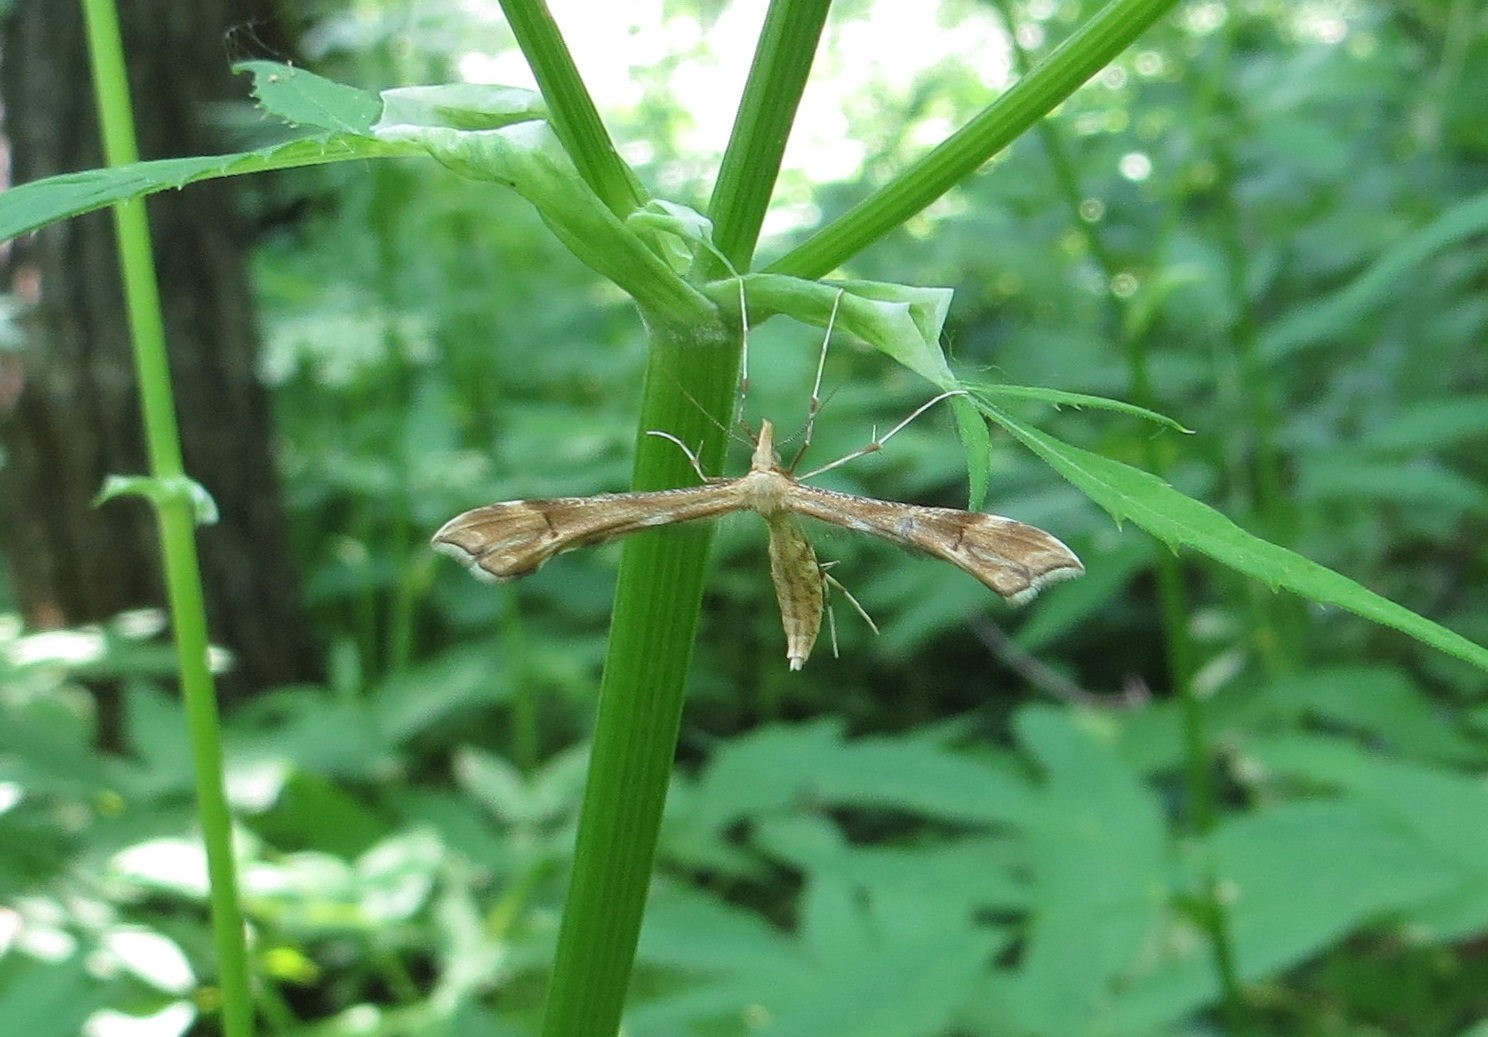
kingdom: Animalia
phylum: Arthropoda
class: Insecta
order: Lepidoptera
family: Pterophoridae
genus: Gillmeria
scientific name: Gillmeria ochrodactyla
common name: Tansy plume
